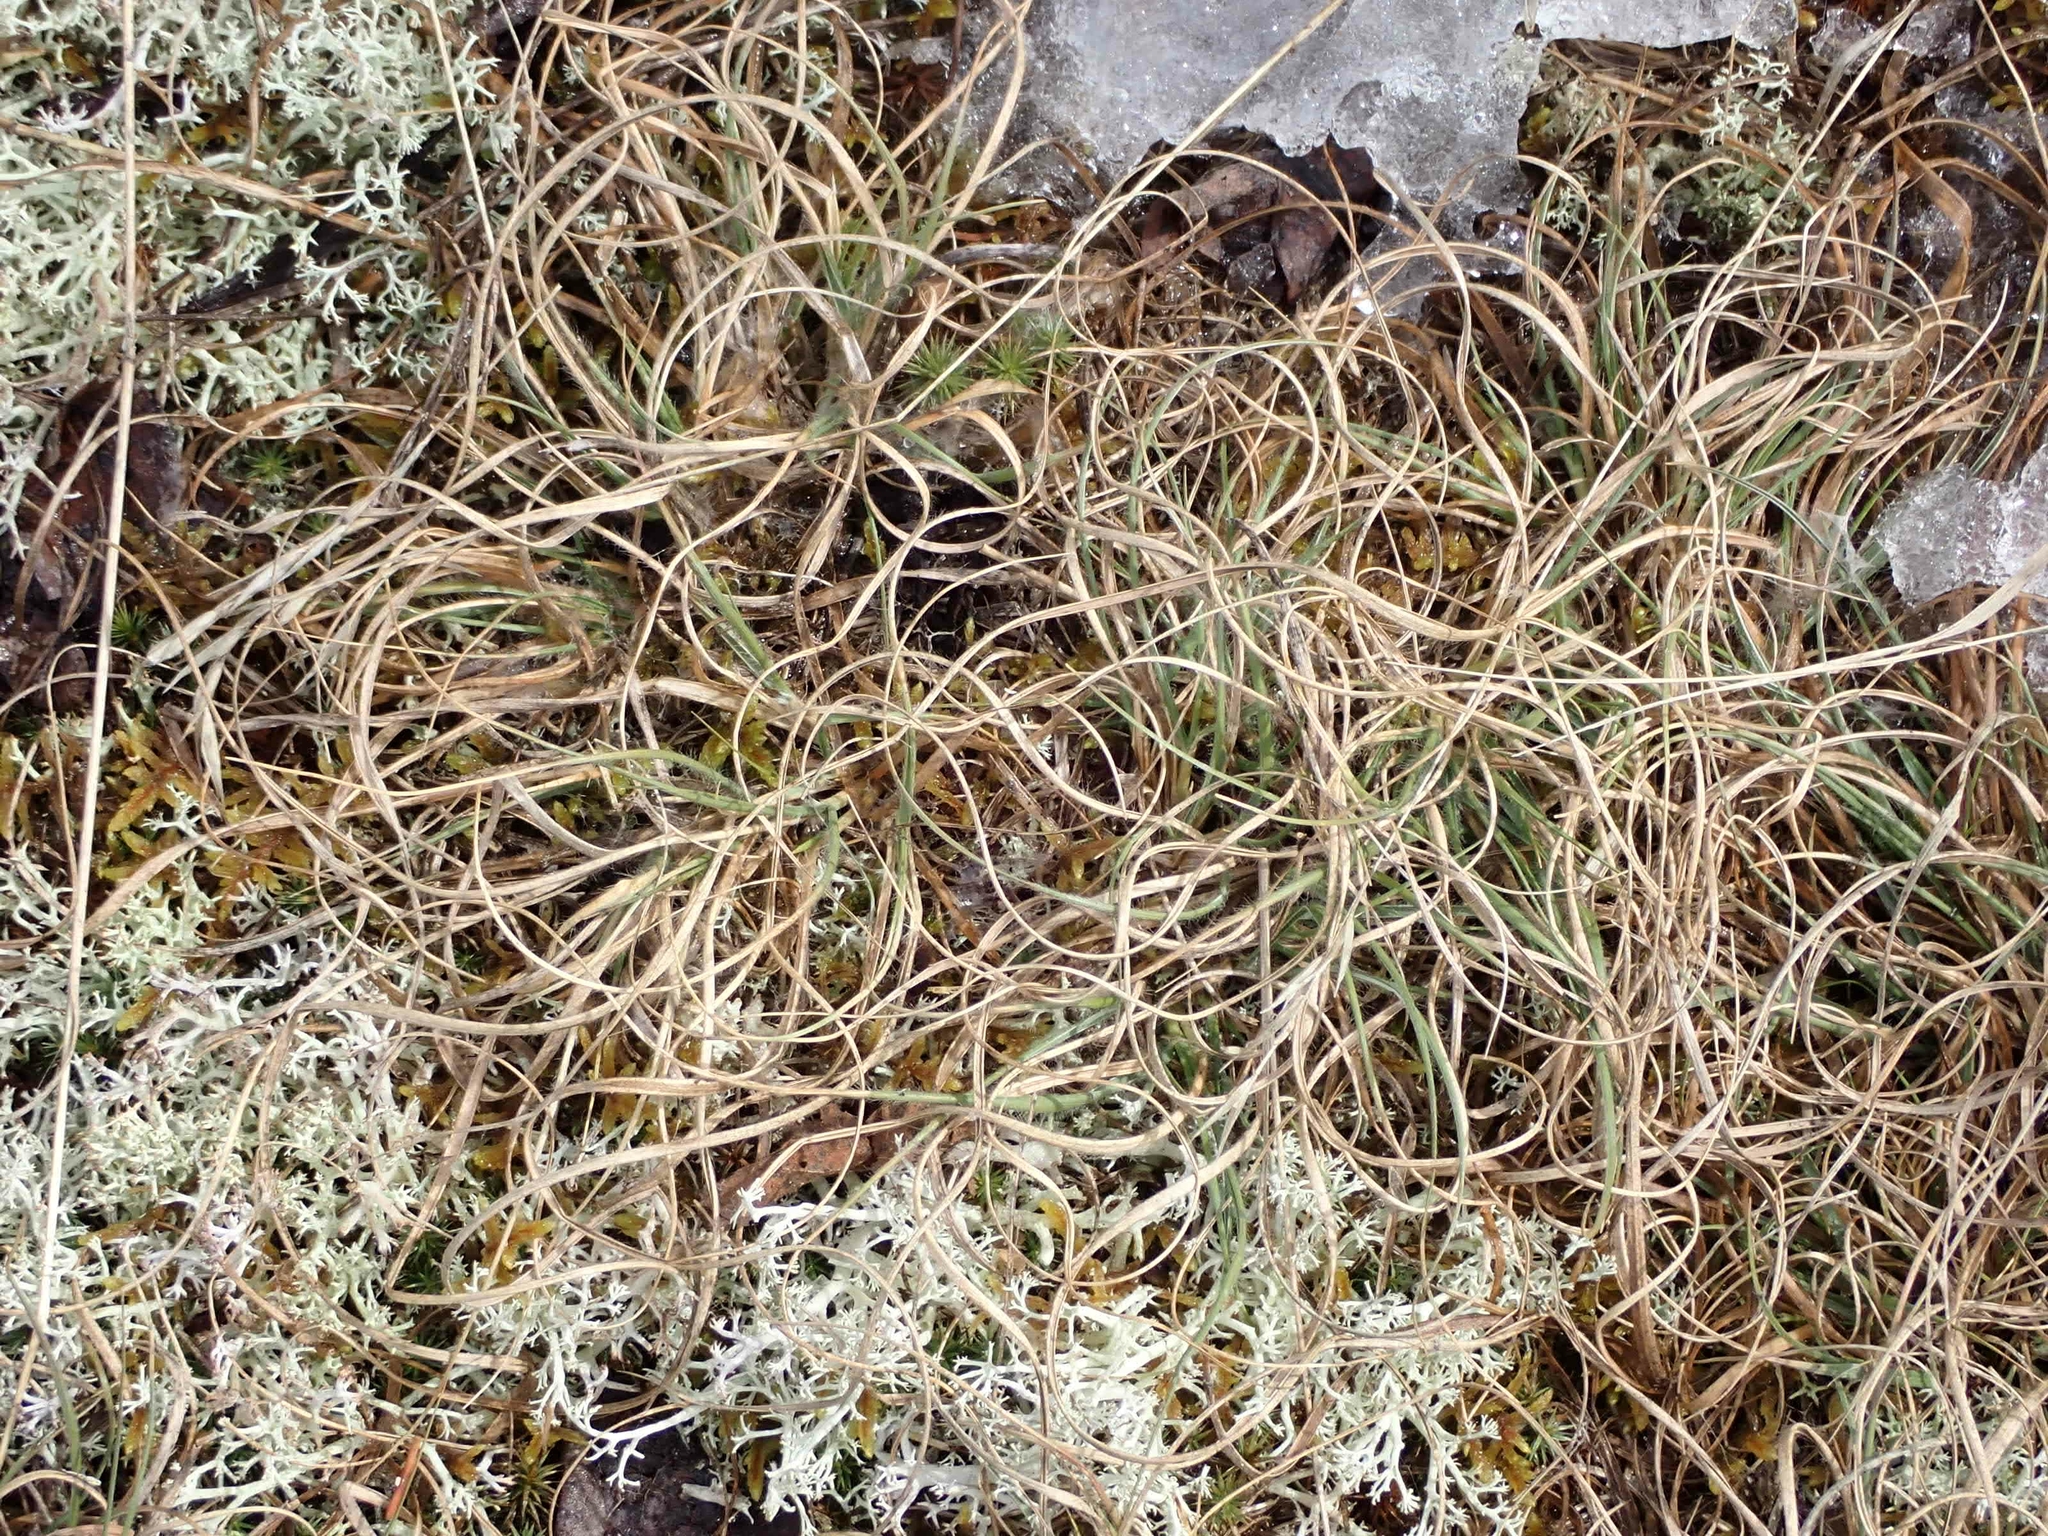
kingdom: Plantae
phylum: Tracheophyta
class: Liliopsida
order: Poales
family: Poaceae
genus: Danthonia
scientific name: Danthonia spicata
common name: Common wild oatgrass
